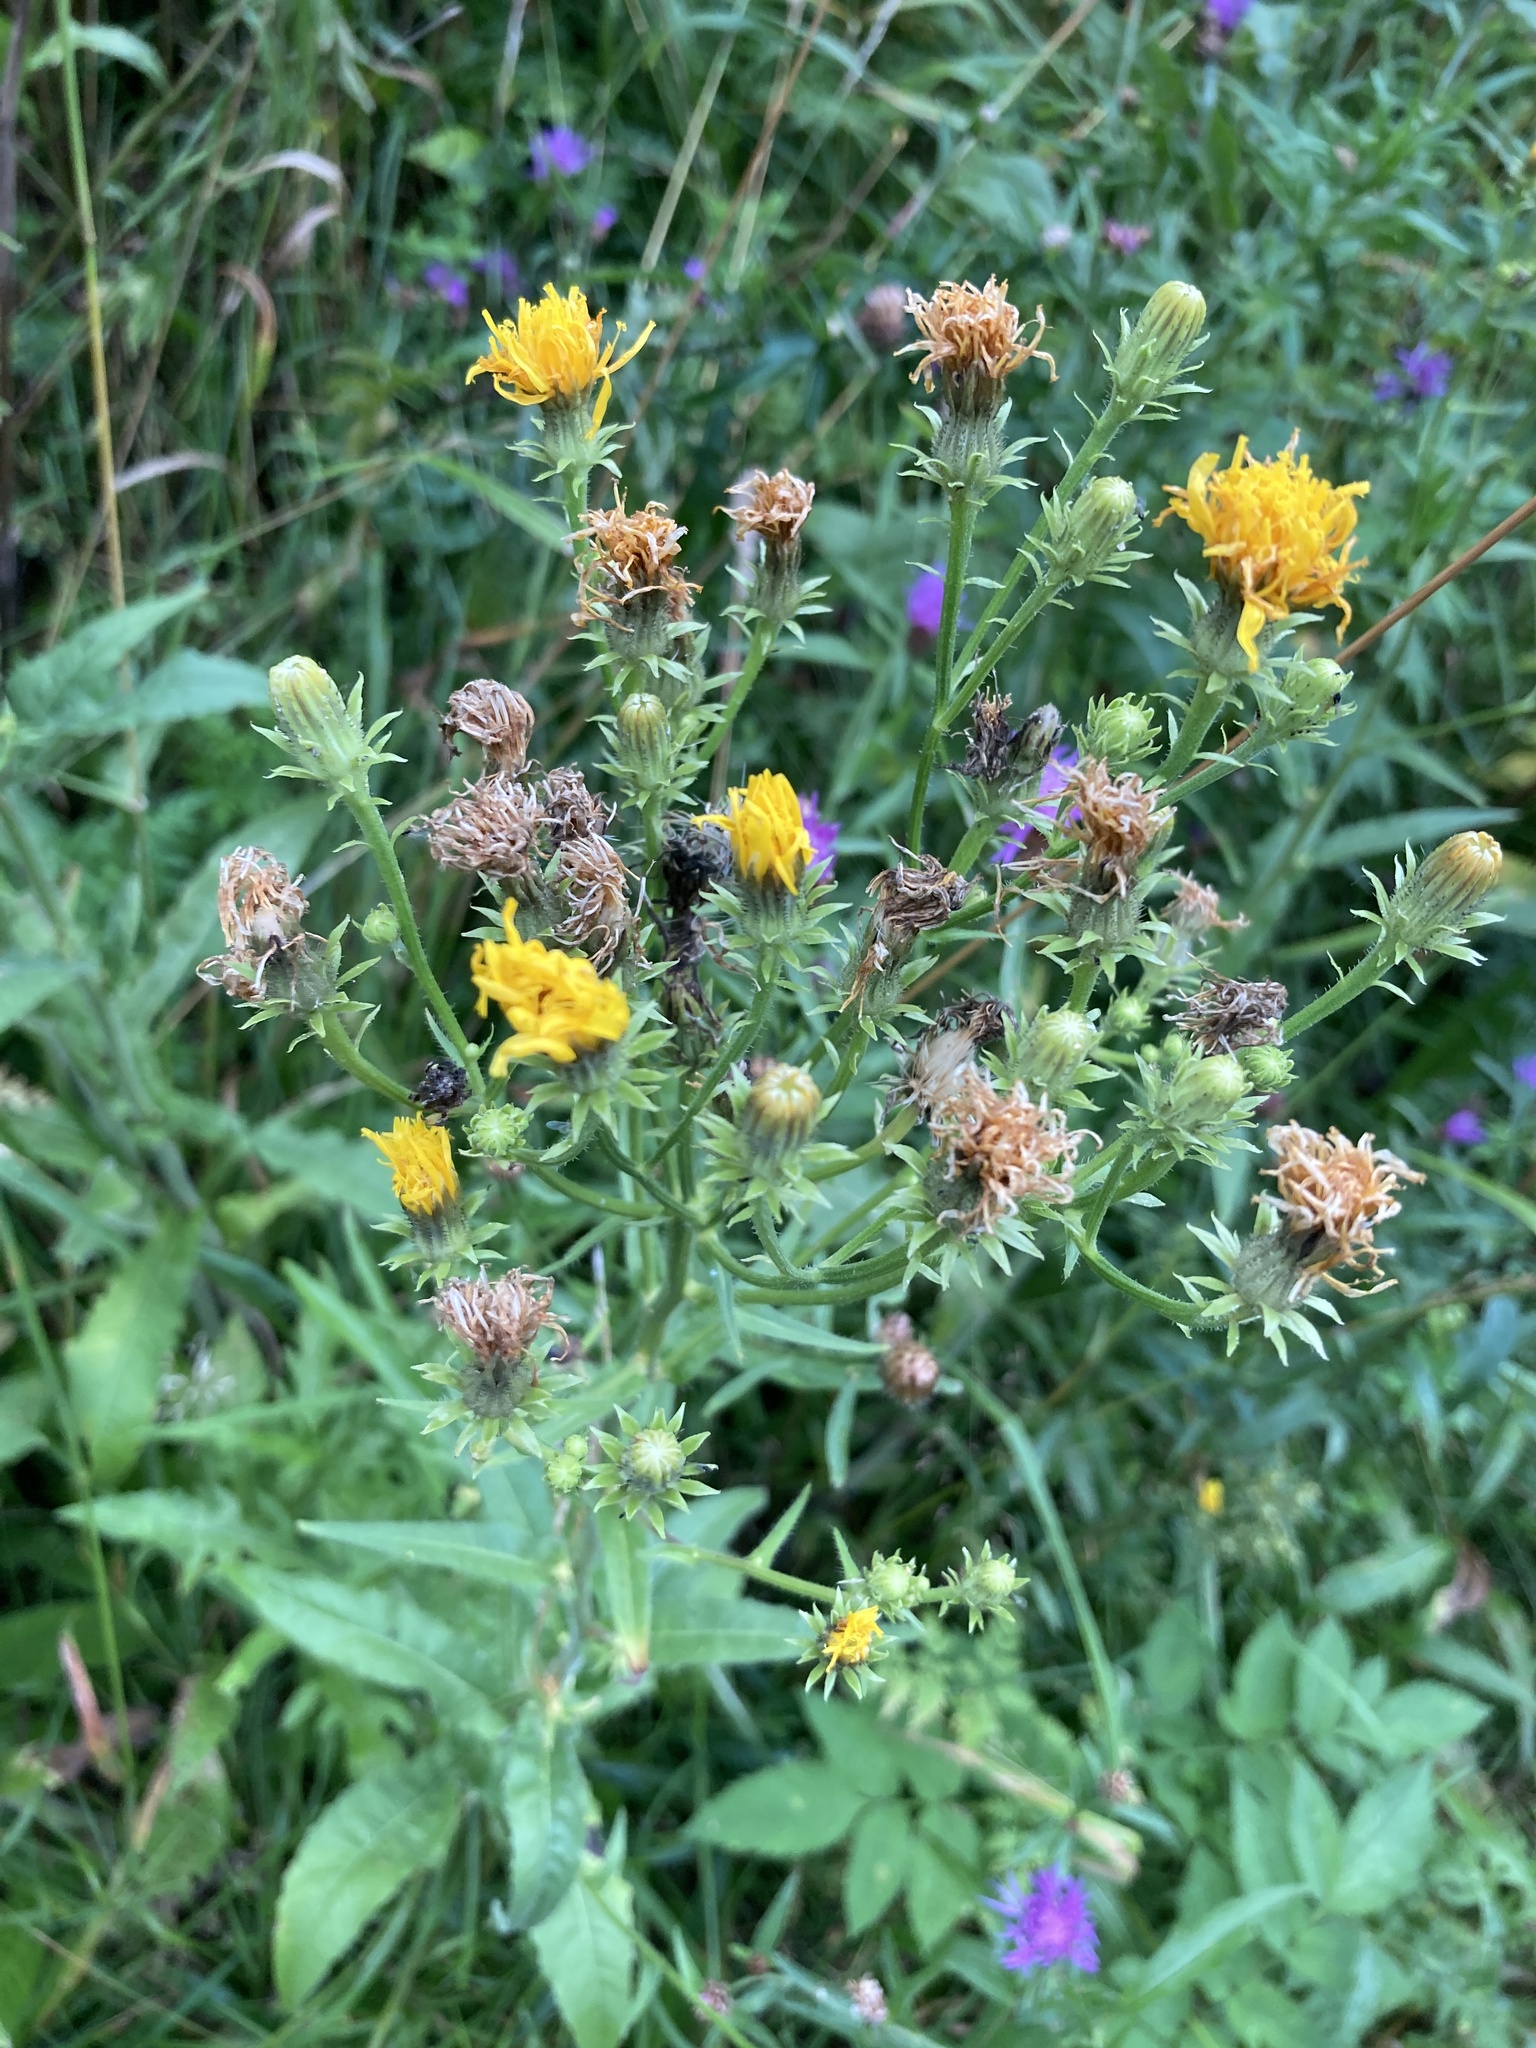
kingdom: Plantae
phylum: Tracheophyta
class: Magnoliopsida
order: Asterales
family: Asteraceae
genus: Picris
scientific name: Picris hieracioides
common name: Hawkweed oxtongue
